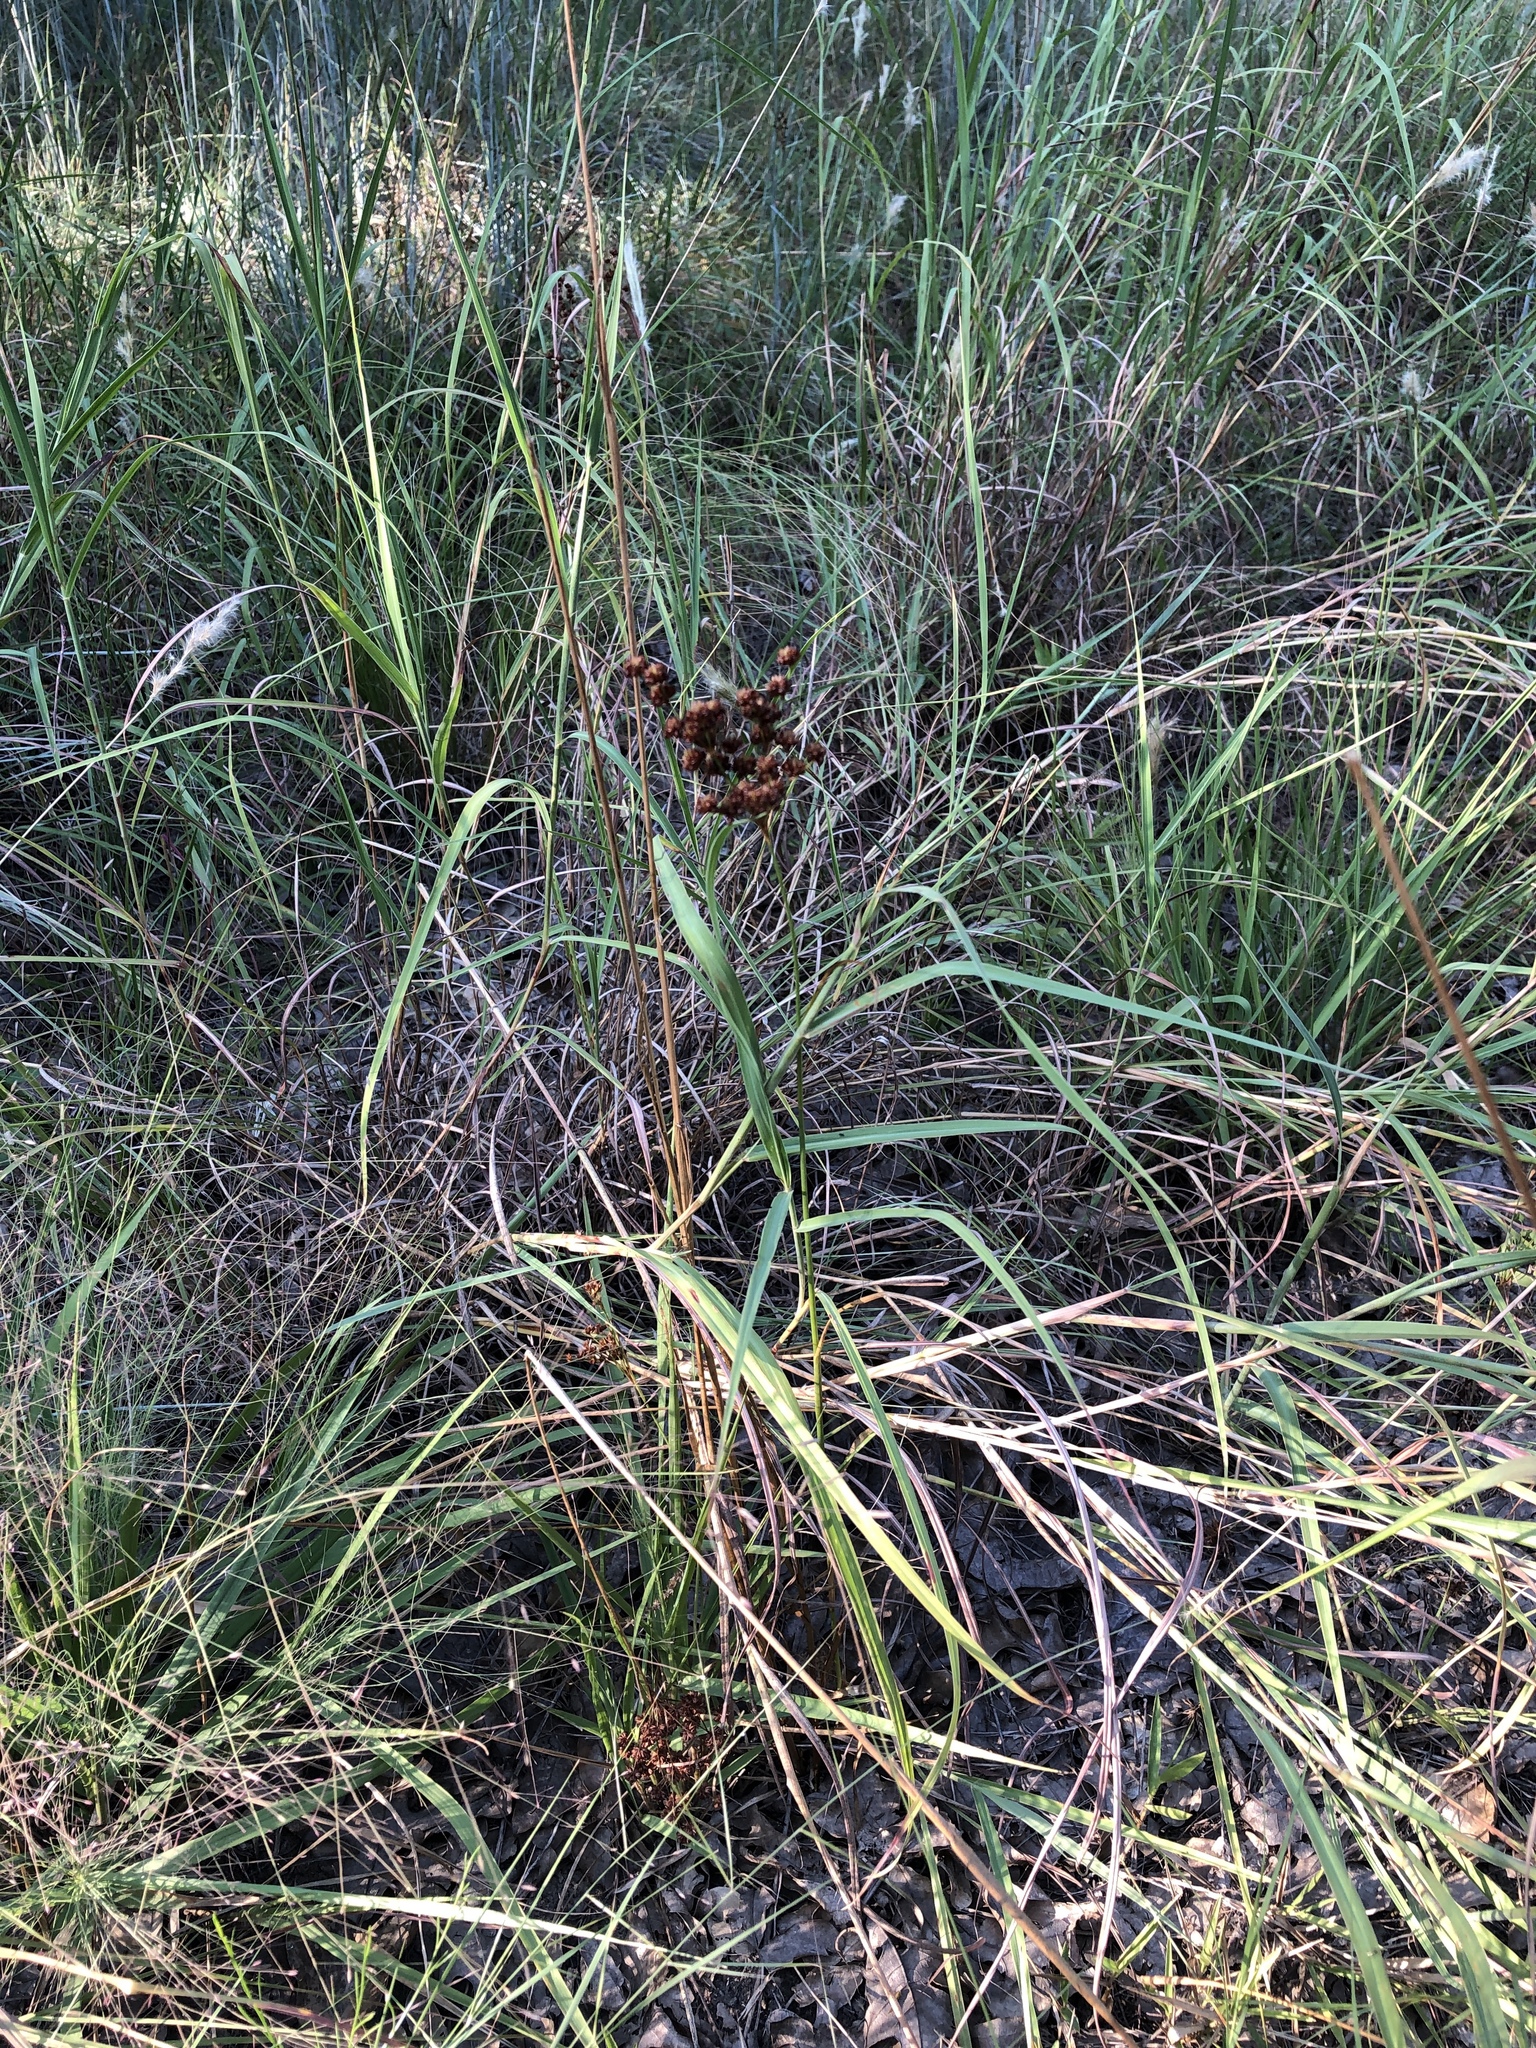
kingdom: Plantae
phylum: Tracheophyta
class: Liliopsida
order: Poales
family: Juncaceae
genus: Juncus
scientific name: Juncus marginatus
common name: Grass-leaf rush
